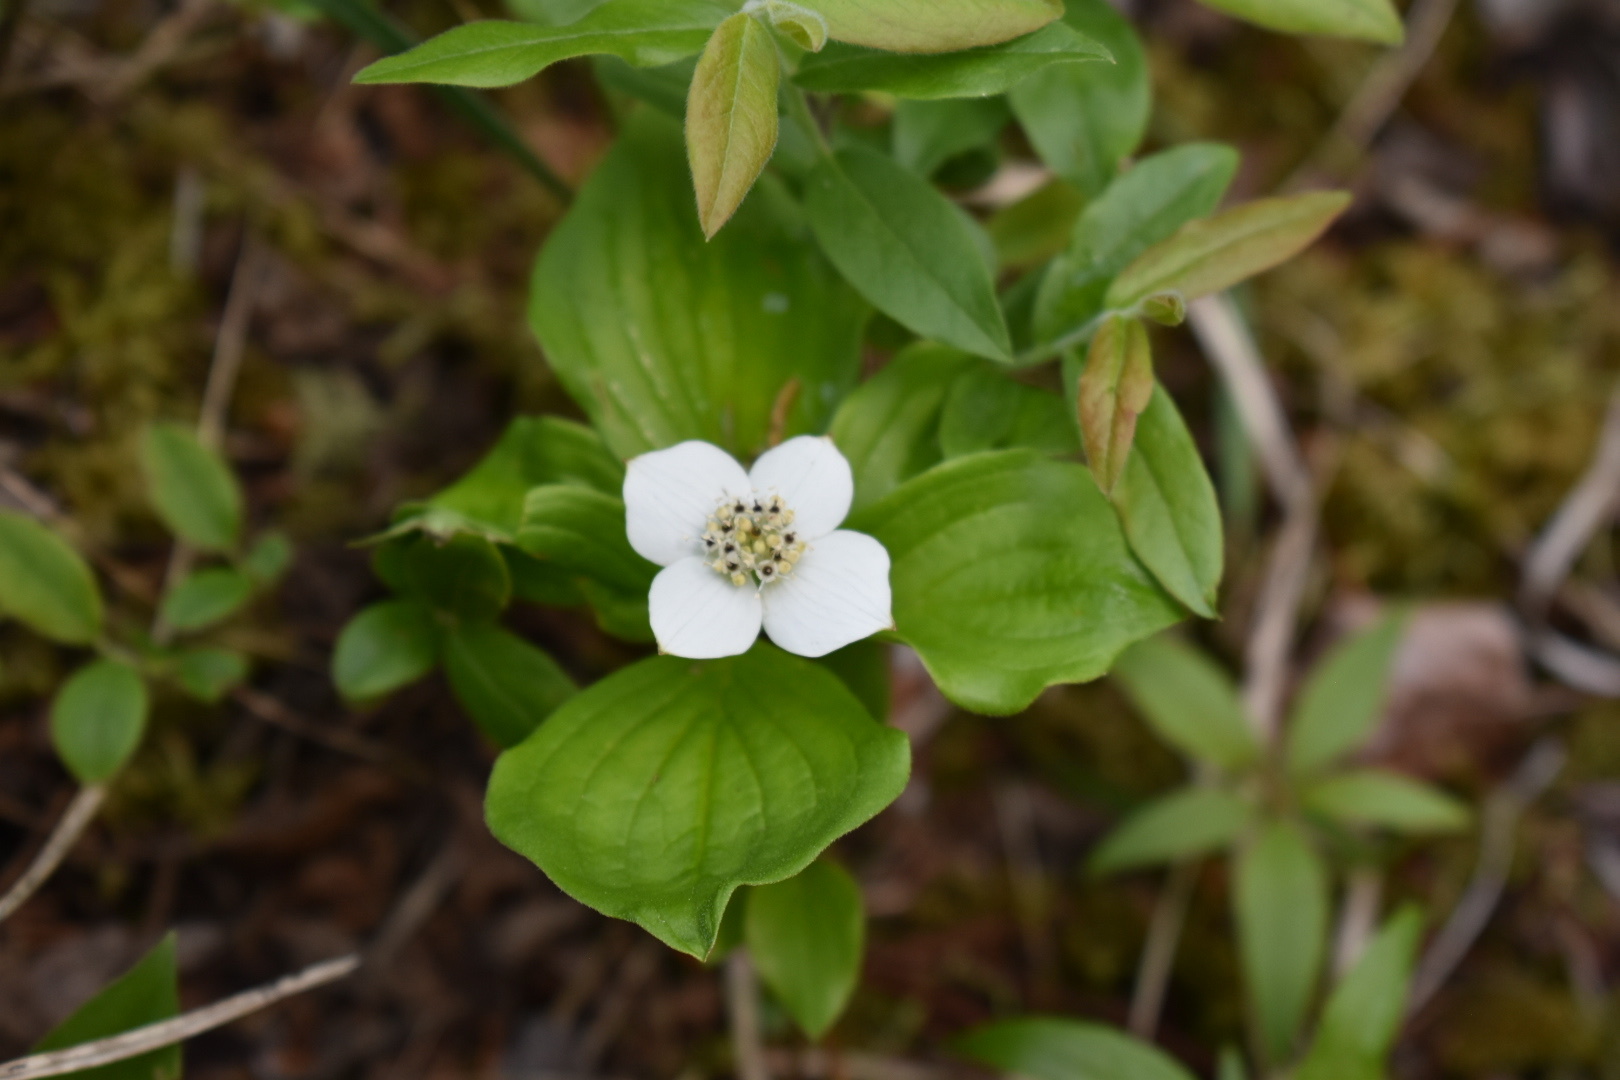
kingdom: Plantae
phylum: Tracheophyta
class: Magnoliopsida
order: Cornales
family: Cornaceae
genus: Cornus
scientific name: Cornus canadensis
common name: Creeping dogwood
